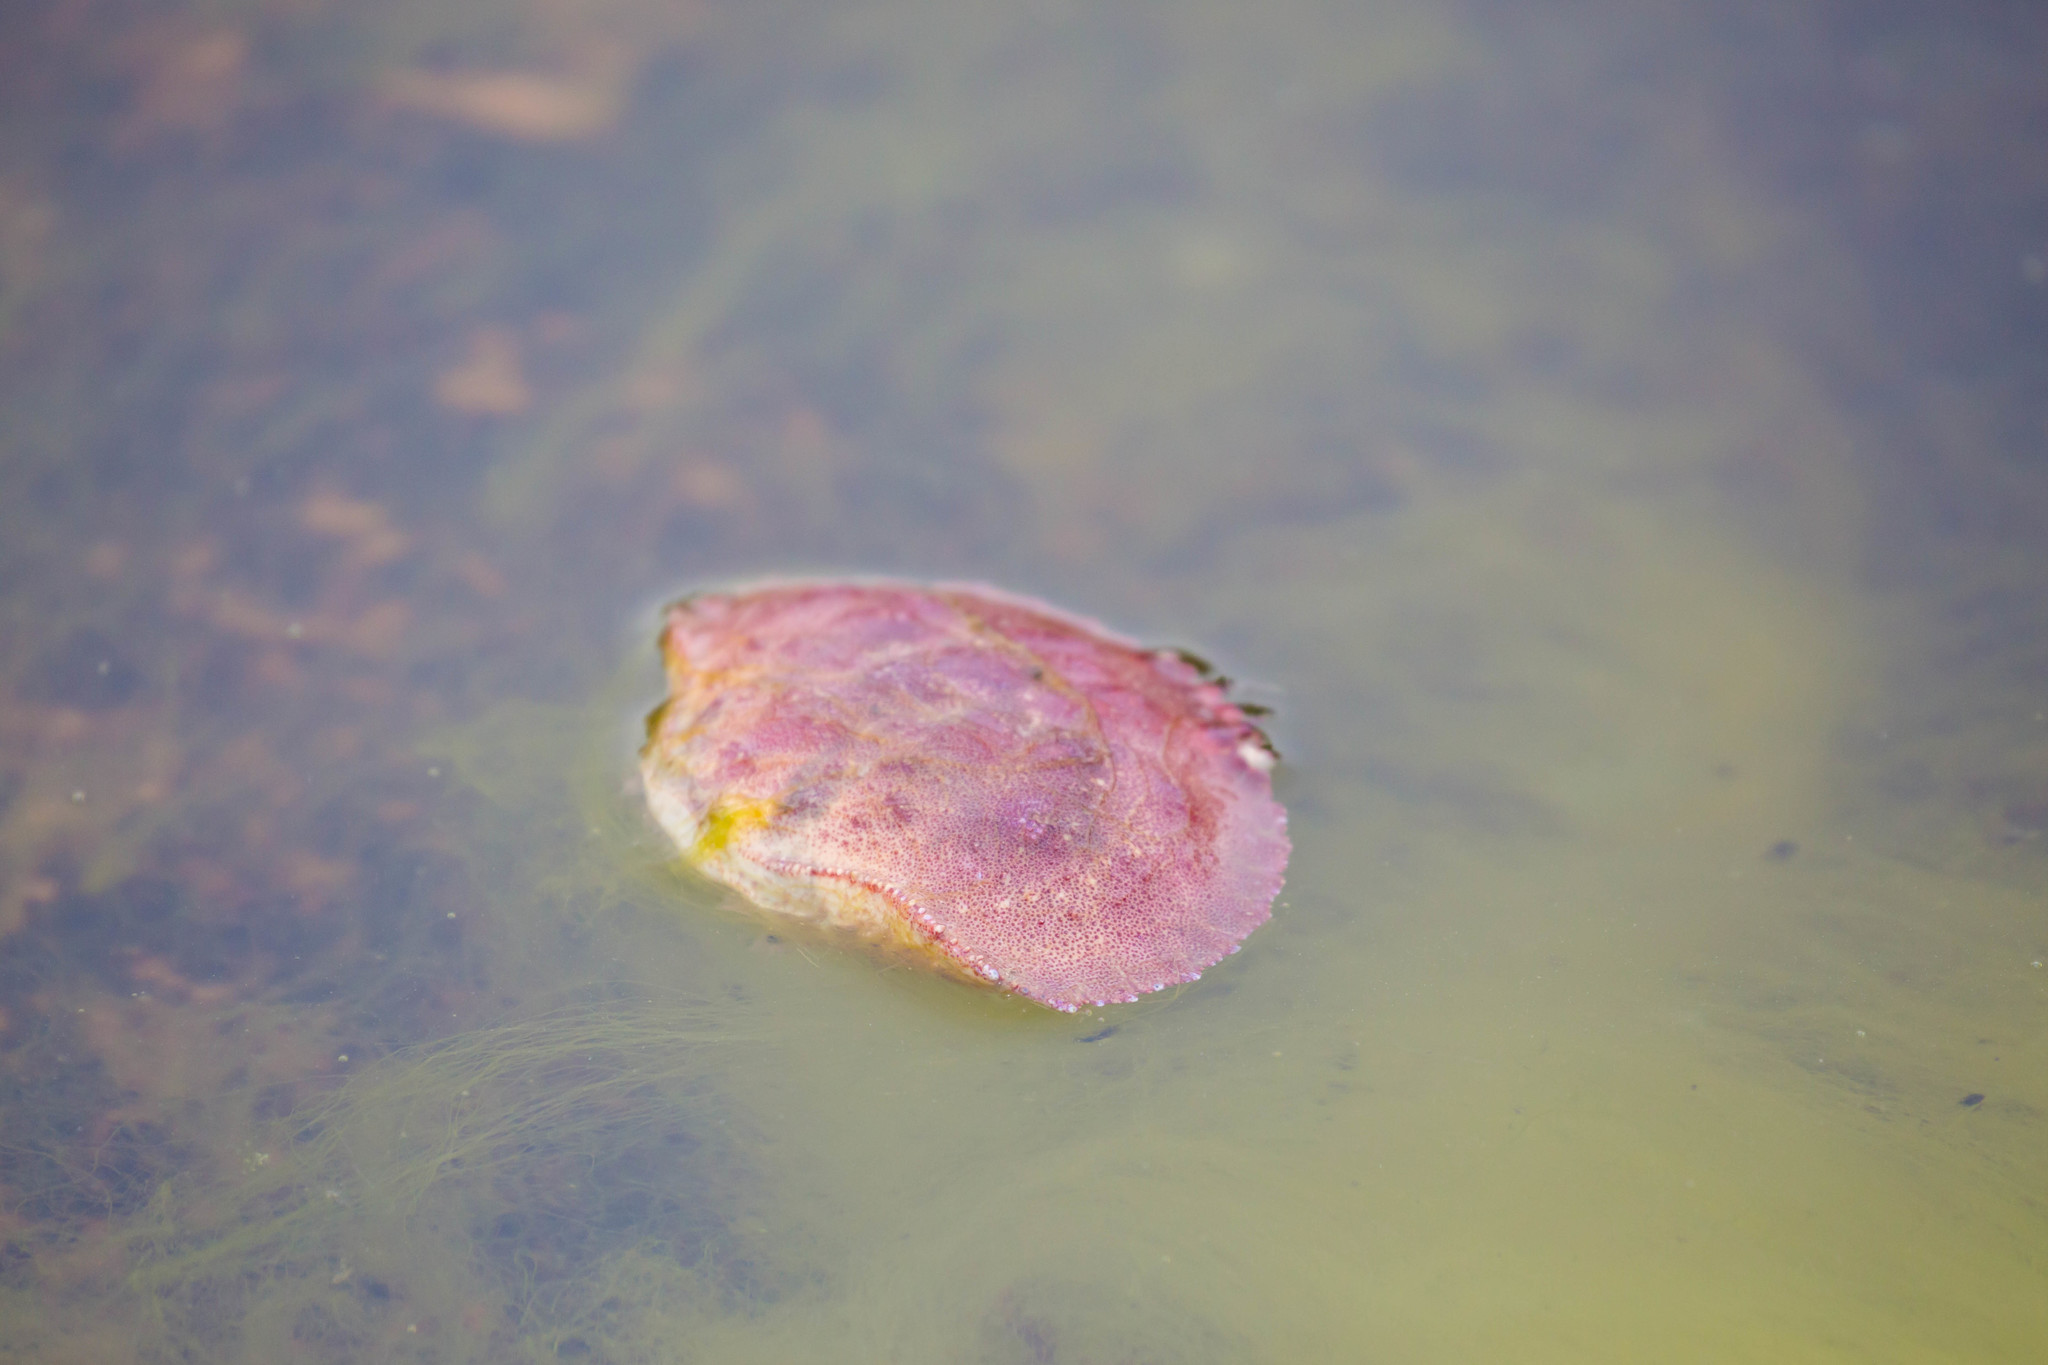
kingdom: Animalia
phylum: Arthropoda
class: Malacostraca
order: Decapoda
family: Cancridae
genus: Cancer
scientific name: Cancer borealis
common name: Jonah crab
